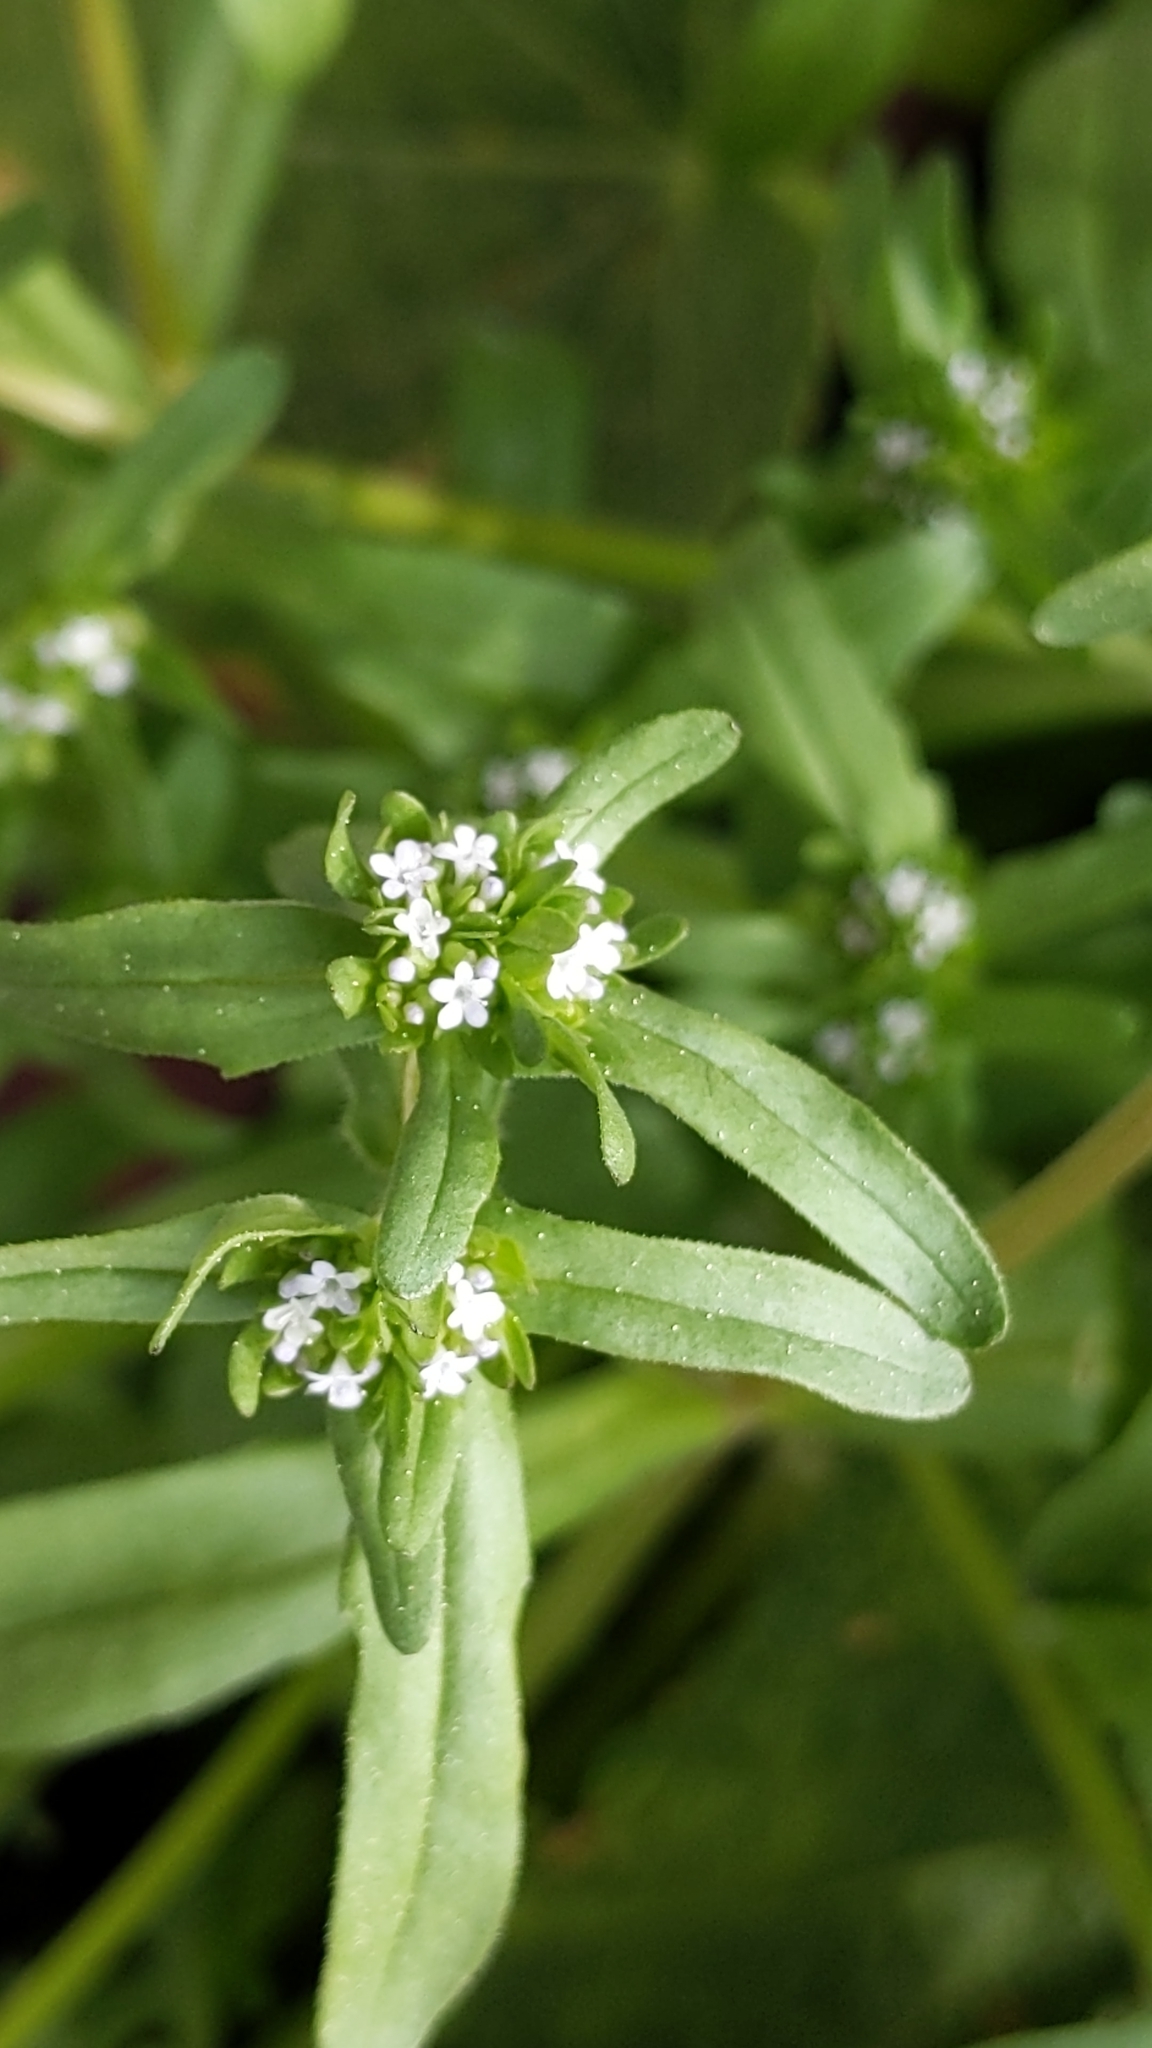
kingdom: Plantae
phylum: Tracheophyta
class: Magnoliopsida
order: Dipsacales
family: Caprifoliaceae
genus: Valerianella
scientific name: Valerianella locusta
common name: Common cornsalad
